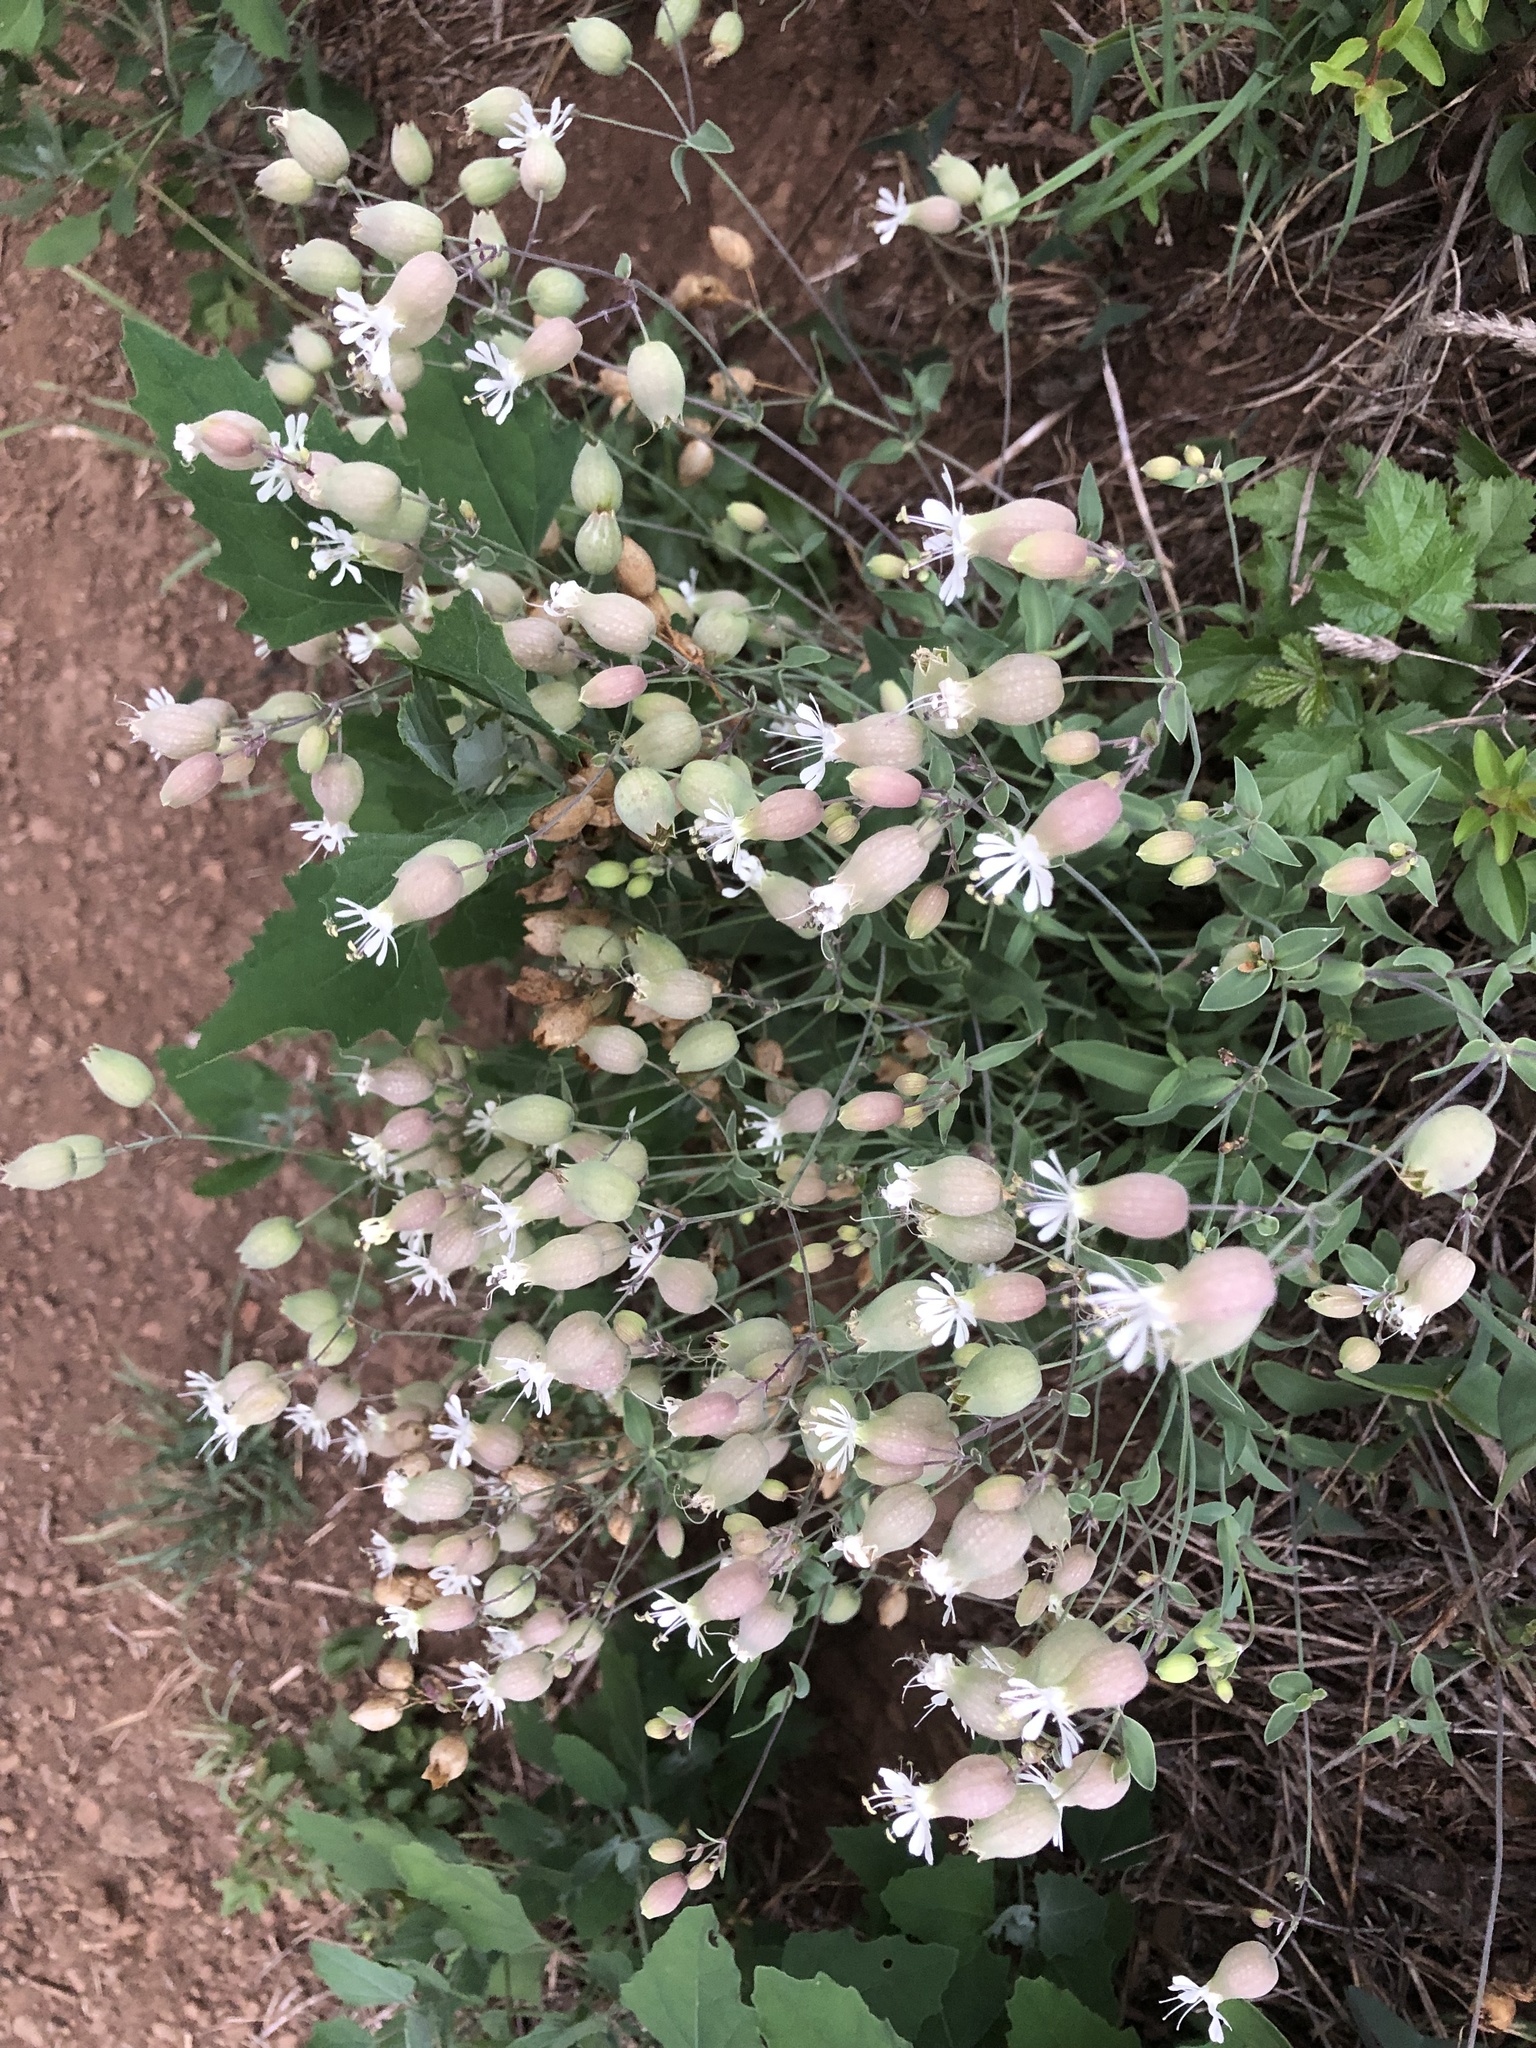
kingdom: Plantae
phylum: Tracheophyta
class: Magnoliopsida
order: Caryophyllales
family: Caryophyllaceae
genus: Silene
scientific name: Silene vulgaris
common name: Bladder campion
